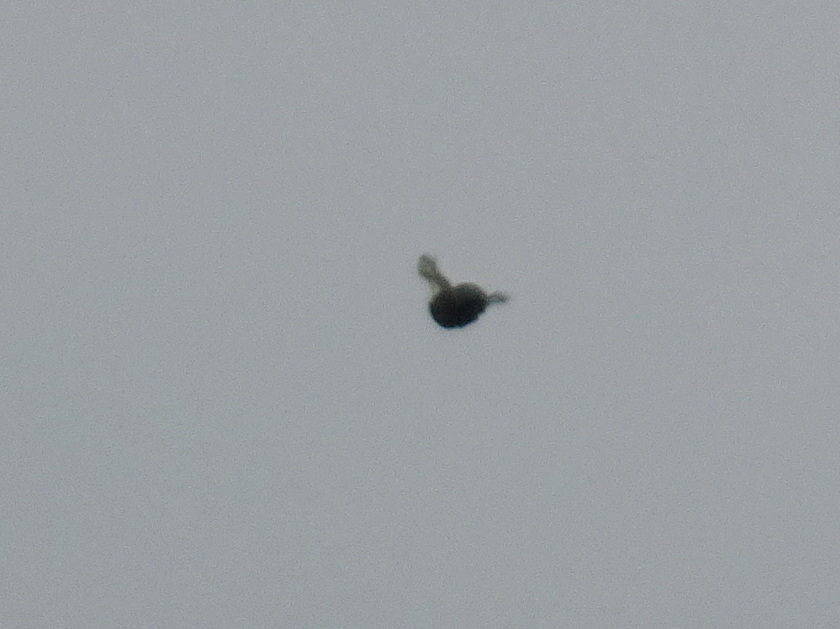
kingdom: Animalia
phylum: Chordata
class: Aves
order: Piciformes
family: Picidae
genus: Dryocopus
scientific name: Dryocopus pileatus
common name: Pileated woodpecker
